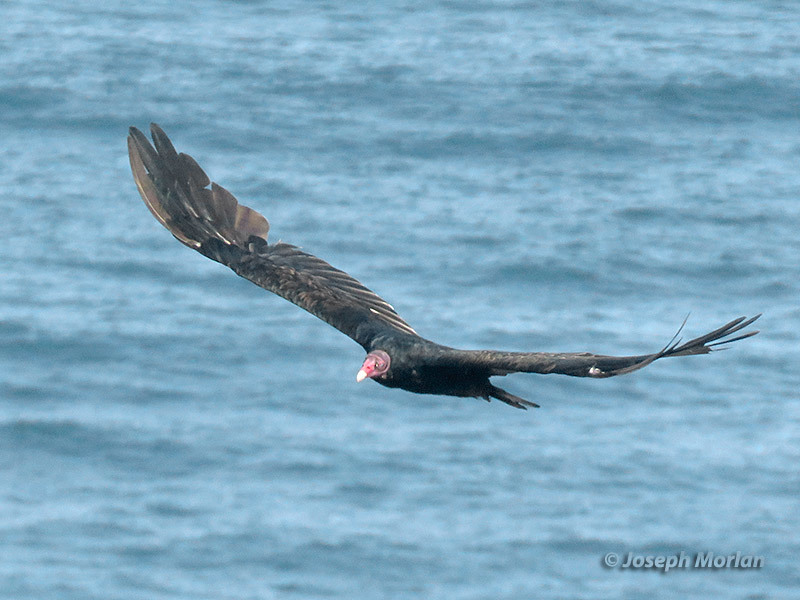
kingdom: Animalia
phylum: Chordata
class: Aves
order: Accipitriformes
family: Cathartidae
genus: Cathartes
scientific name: Cathartes aura
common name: Turkey vulture
